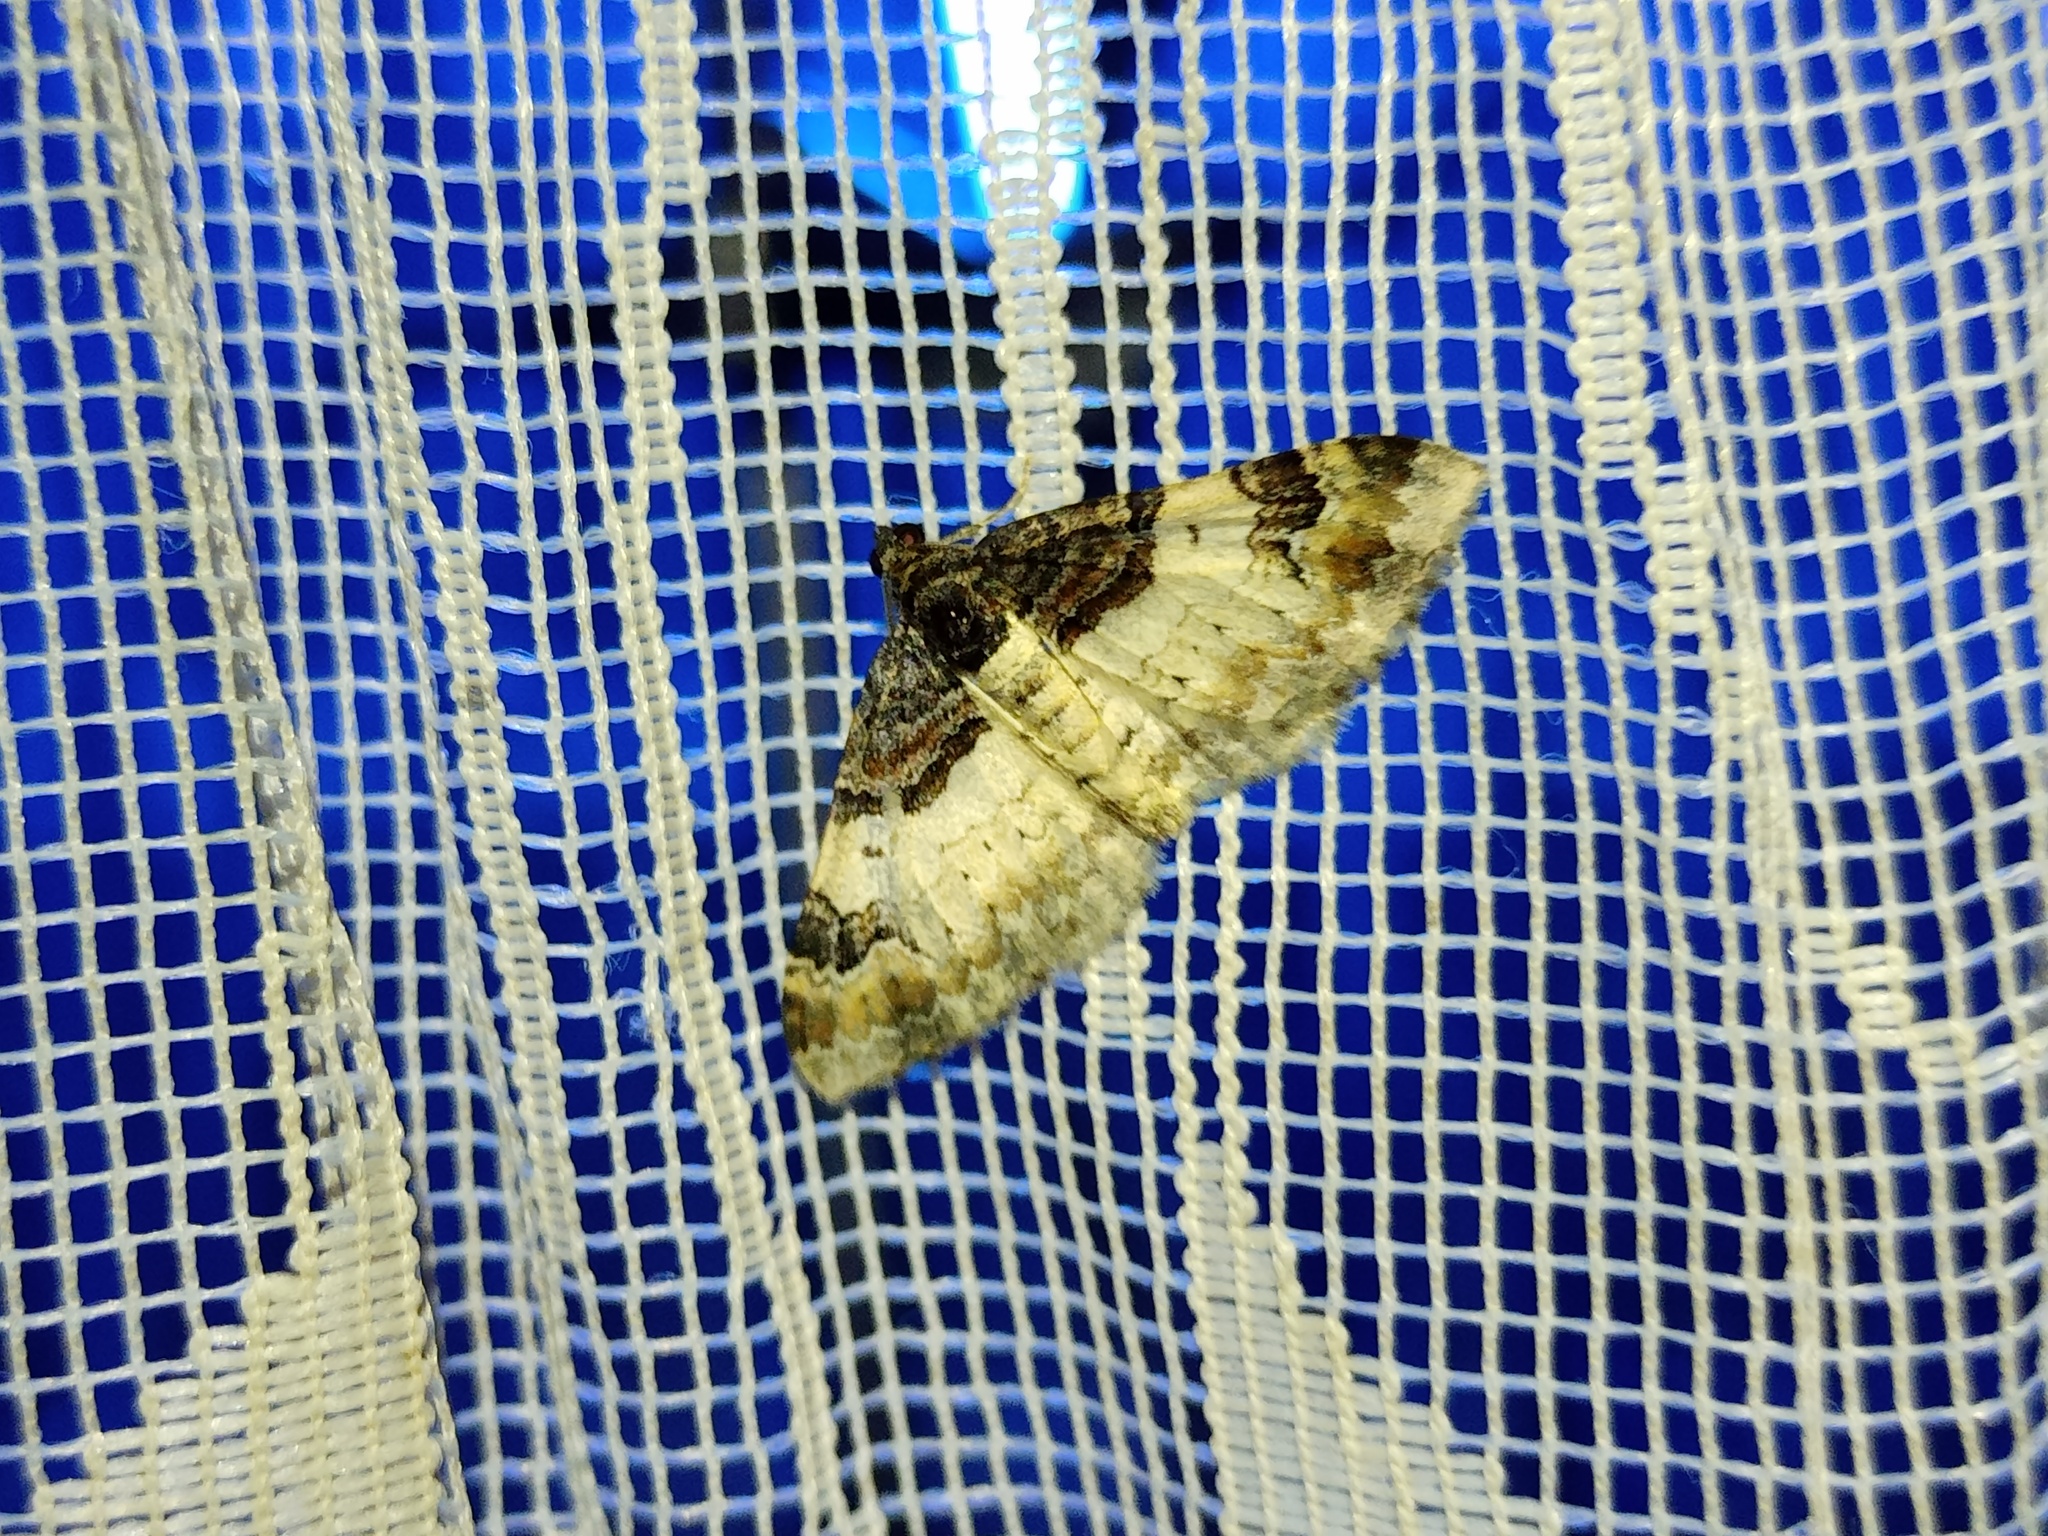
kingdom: Animalia
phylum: Arthropoda
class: Insecta
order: Lepidoptera
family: Geometridae
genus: Catarhoe
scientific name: Catarhoe cuculata
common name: Royal mantle
